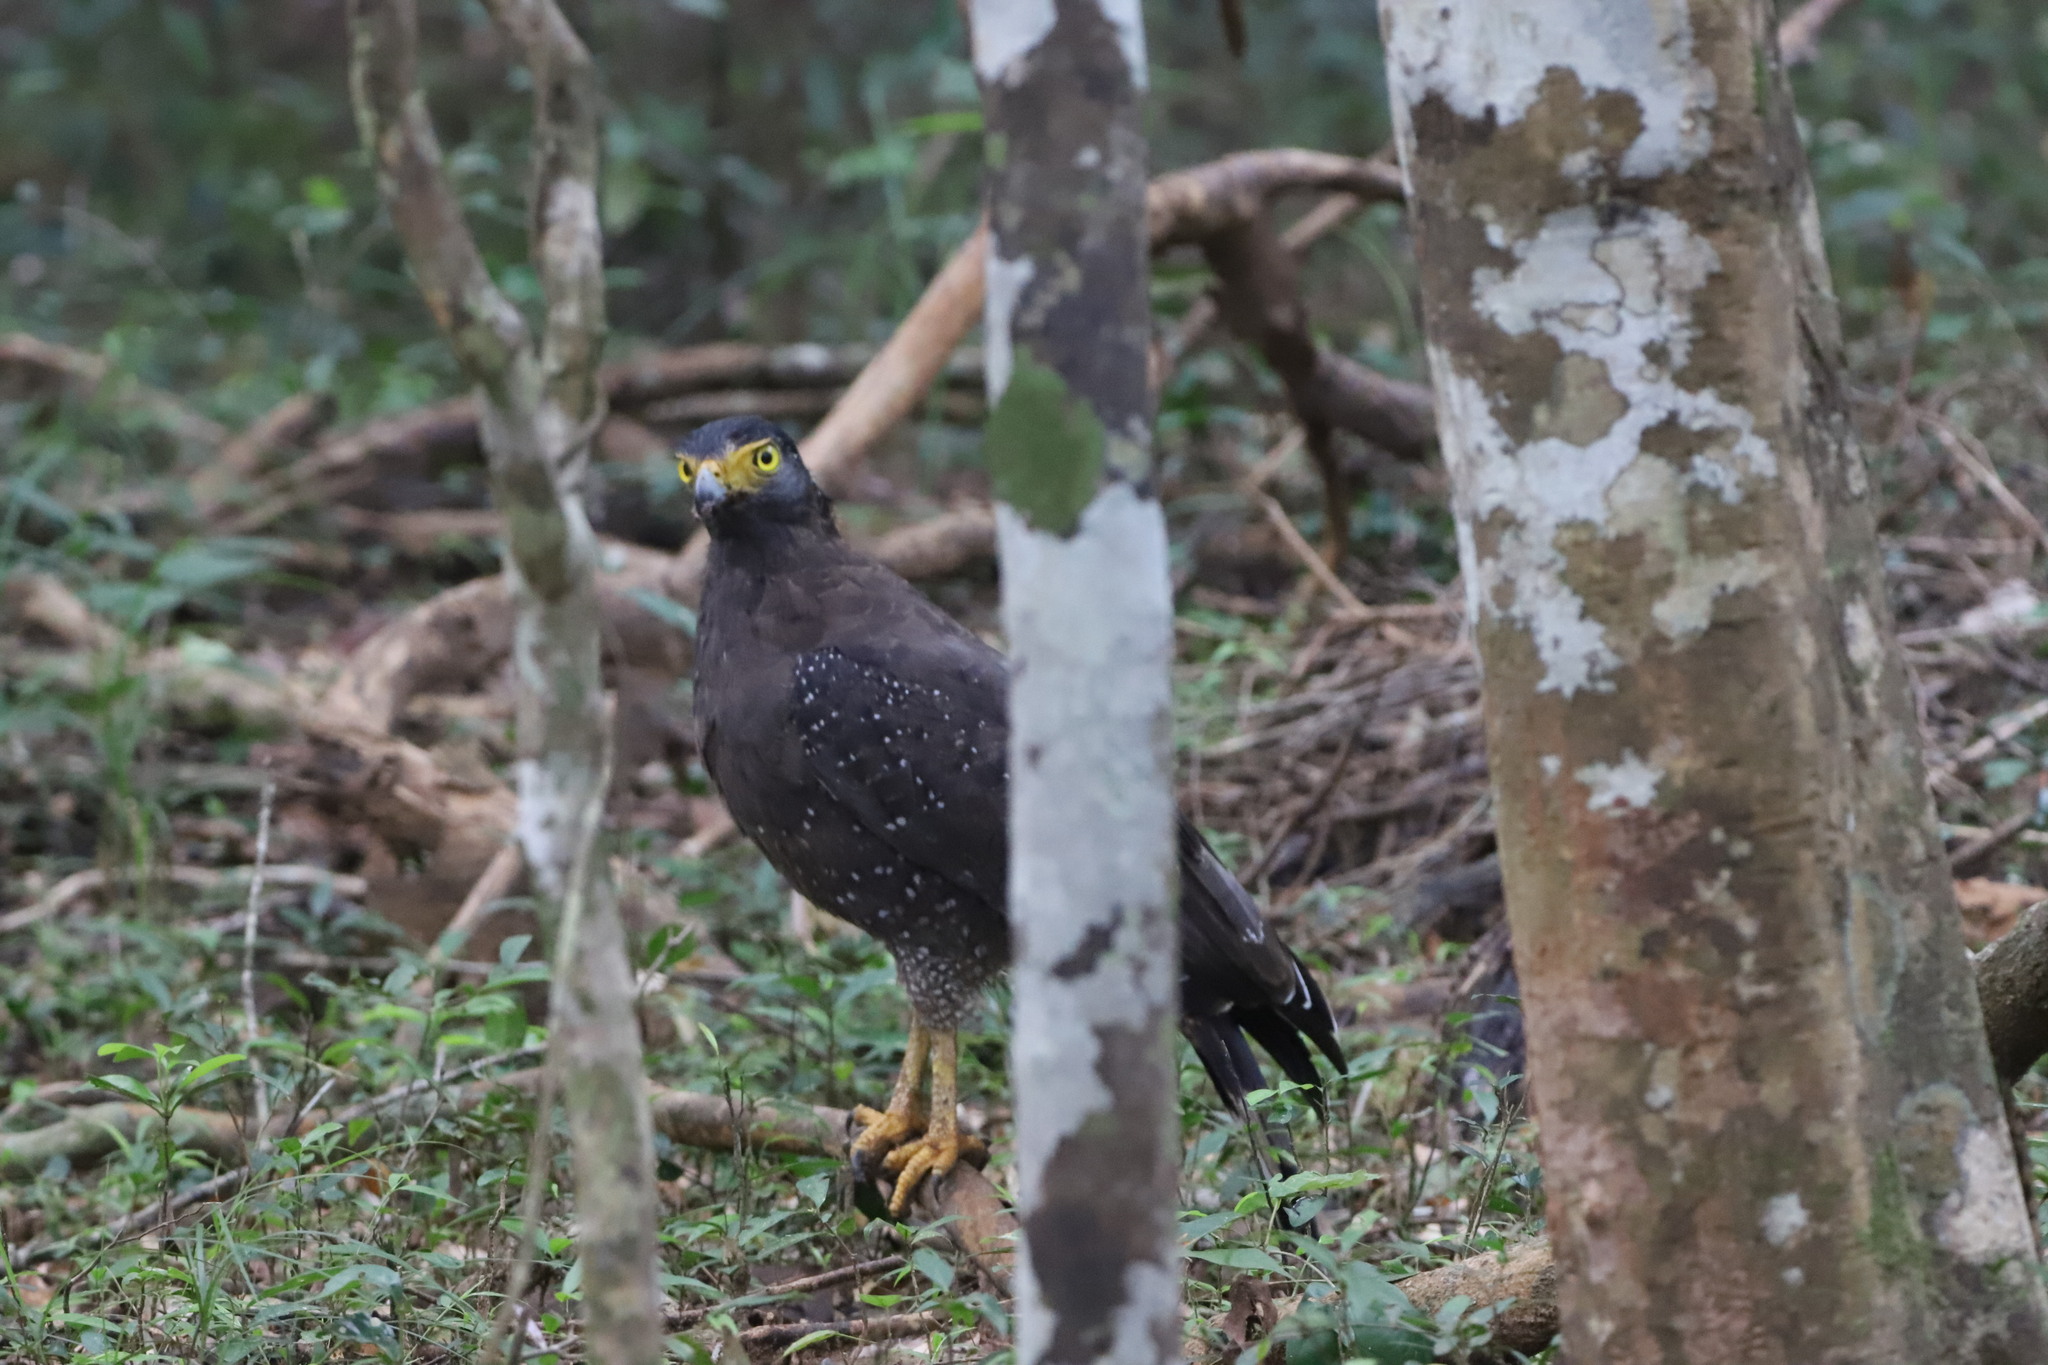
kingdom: Animalia
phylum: Chordata
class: Aves
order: Accipitriformes
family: Accipitridae
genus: Spilornis
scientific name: Spilornis cheela
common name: Crested serpent eagle
